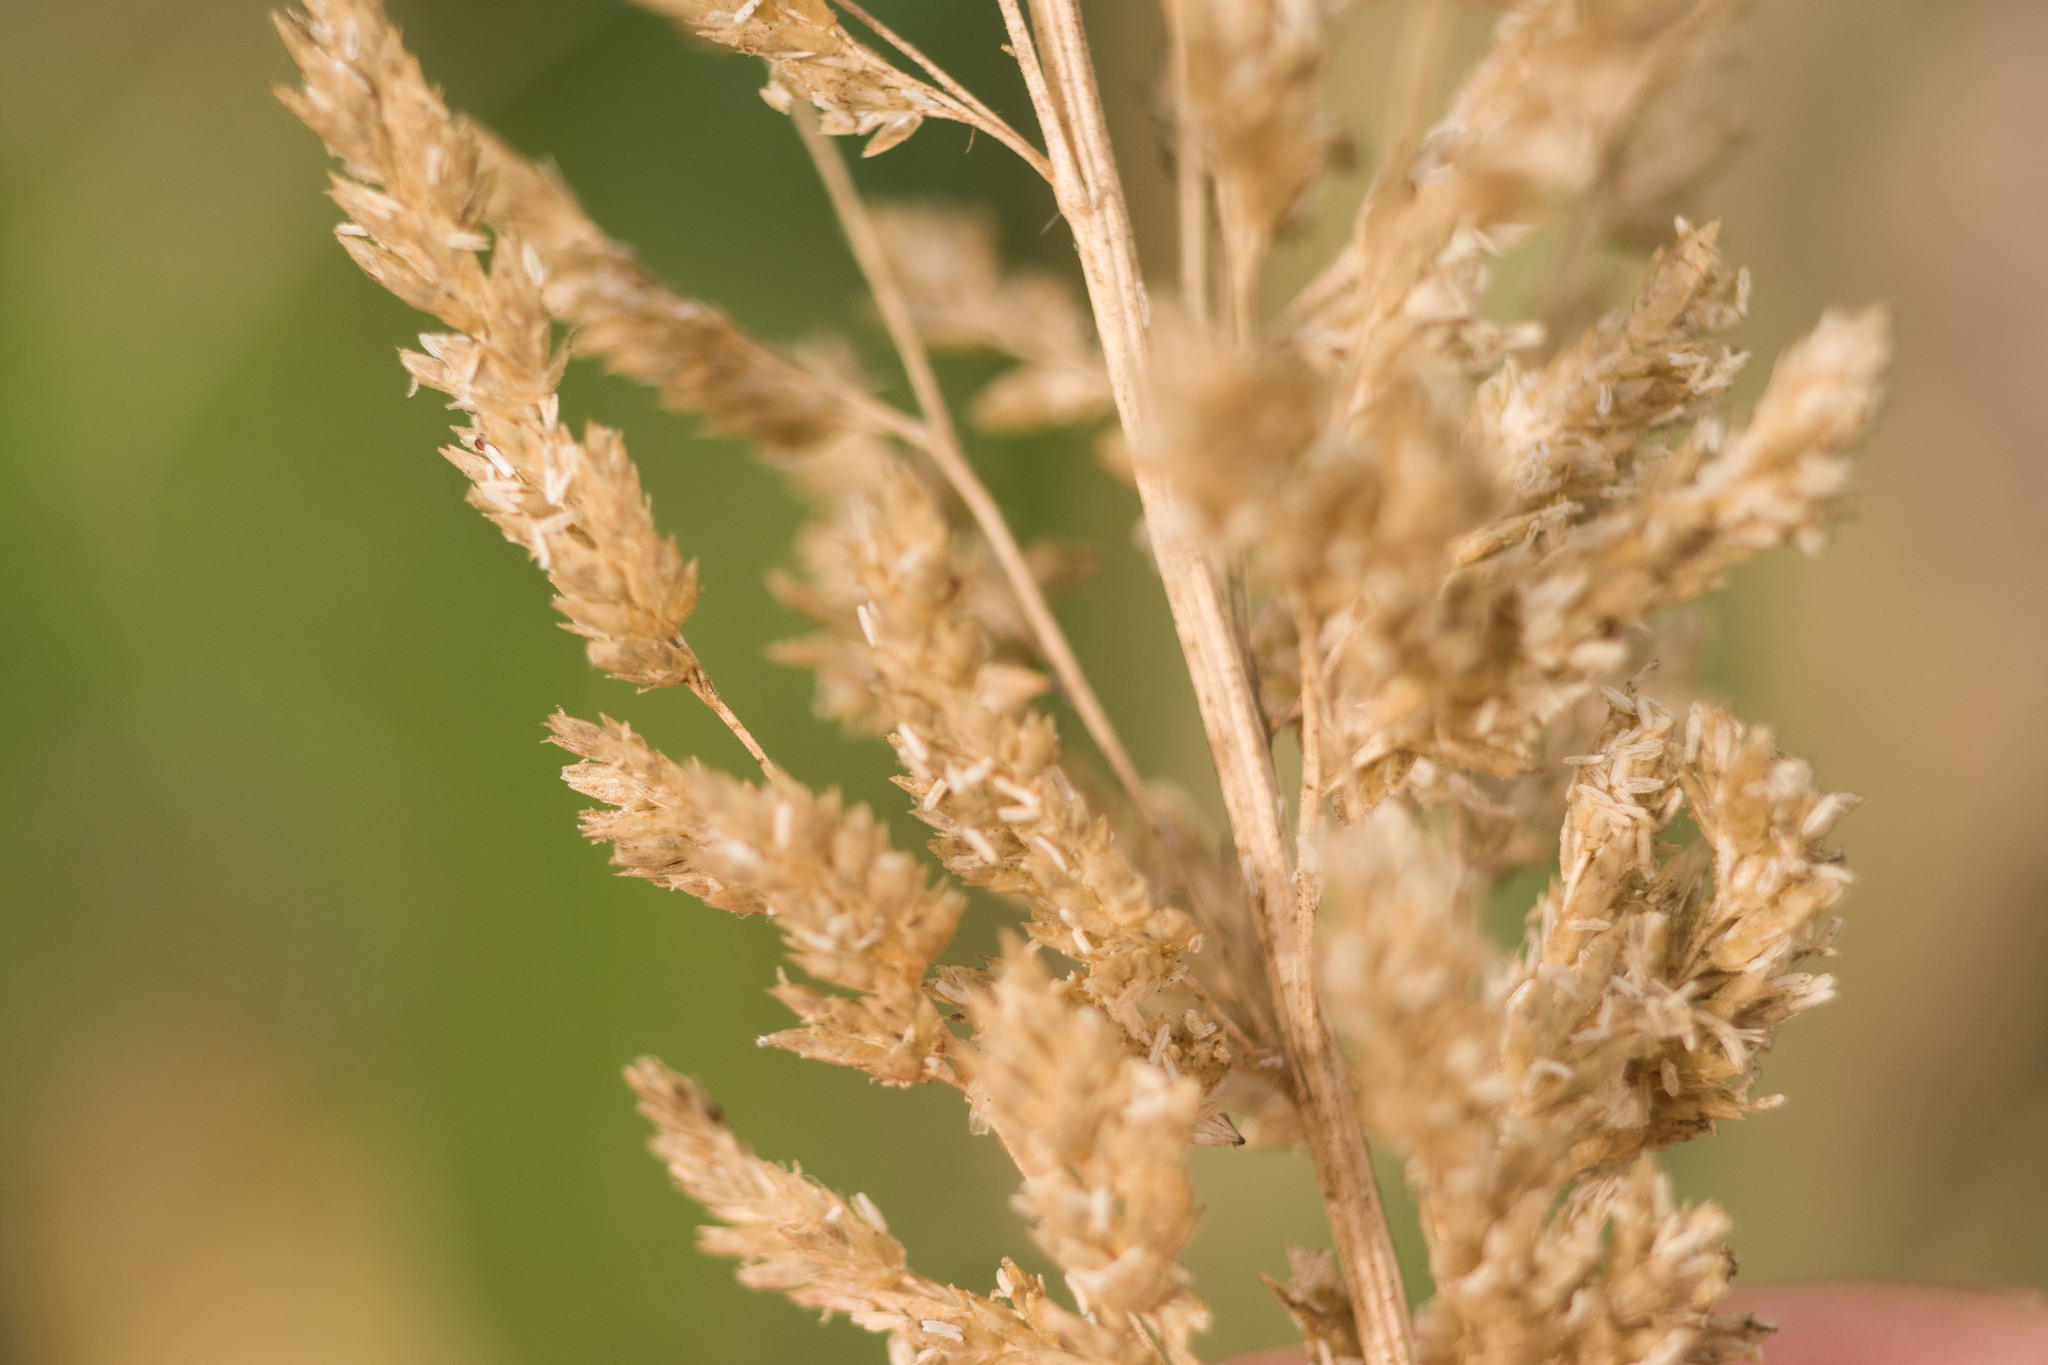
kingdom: Plantae
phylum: Tracheophyta
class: Liliopsida
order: Poales
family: Poaceae
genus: Eragrostis
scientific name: Eragrostis variabilis
